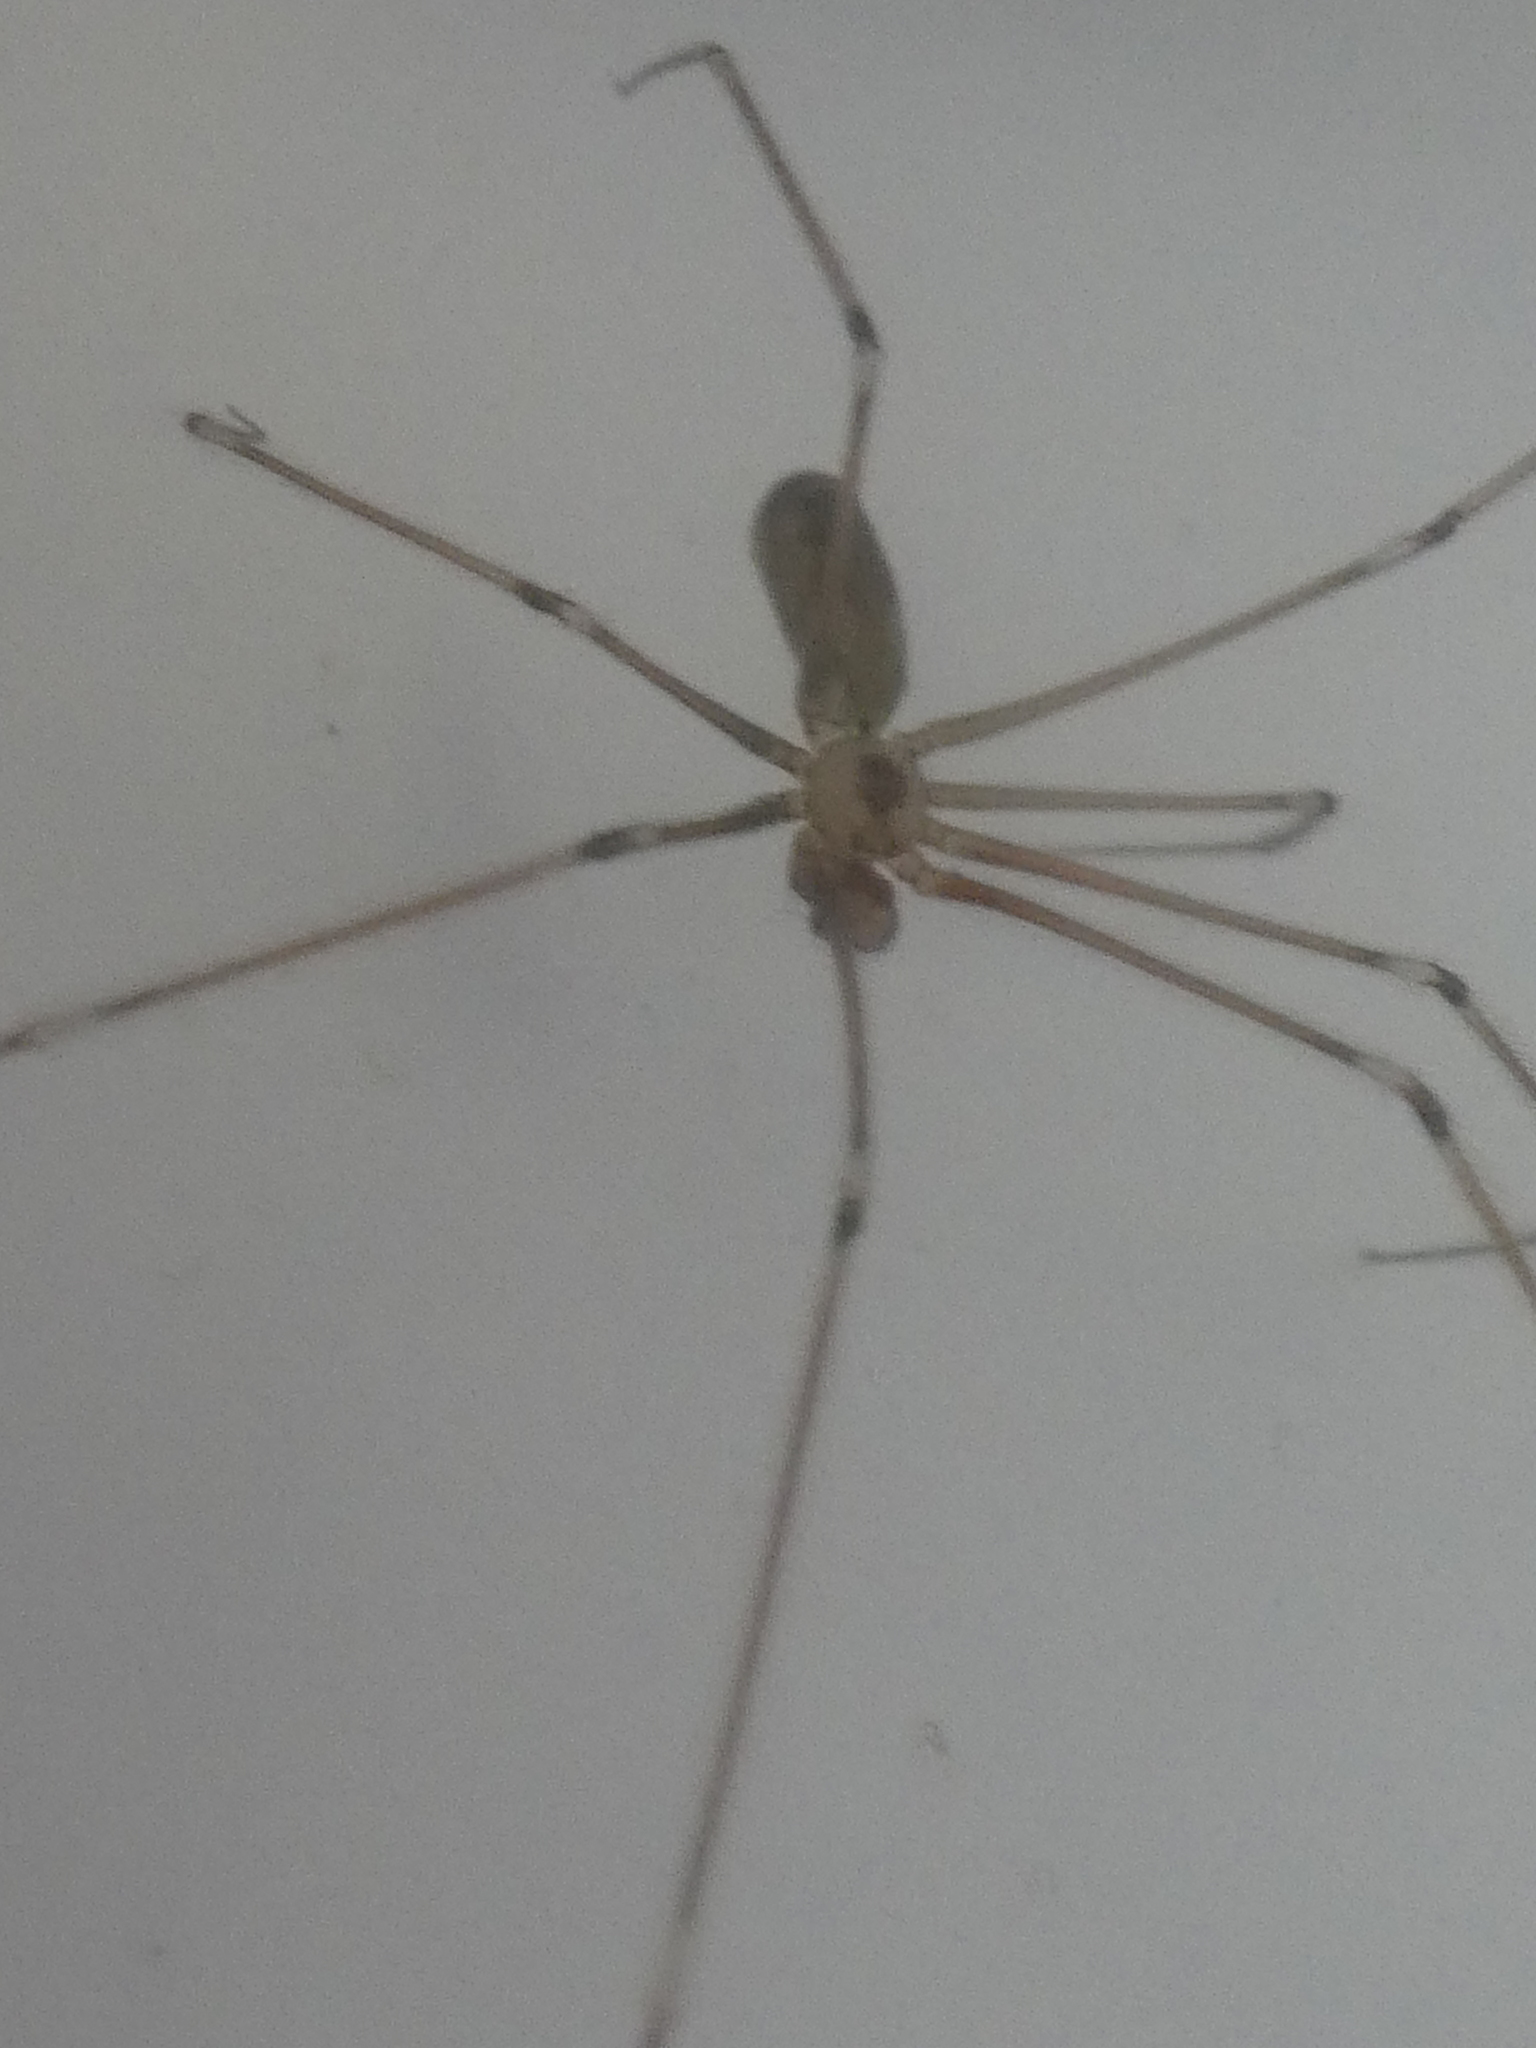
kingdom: Animalia
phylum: Arthropoda
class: Arachnida
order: Araneae
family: Pholcidae
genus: Pholcus
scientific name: Pholcus phalangioides
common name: Longbodied cellar spider
